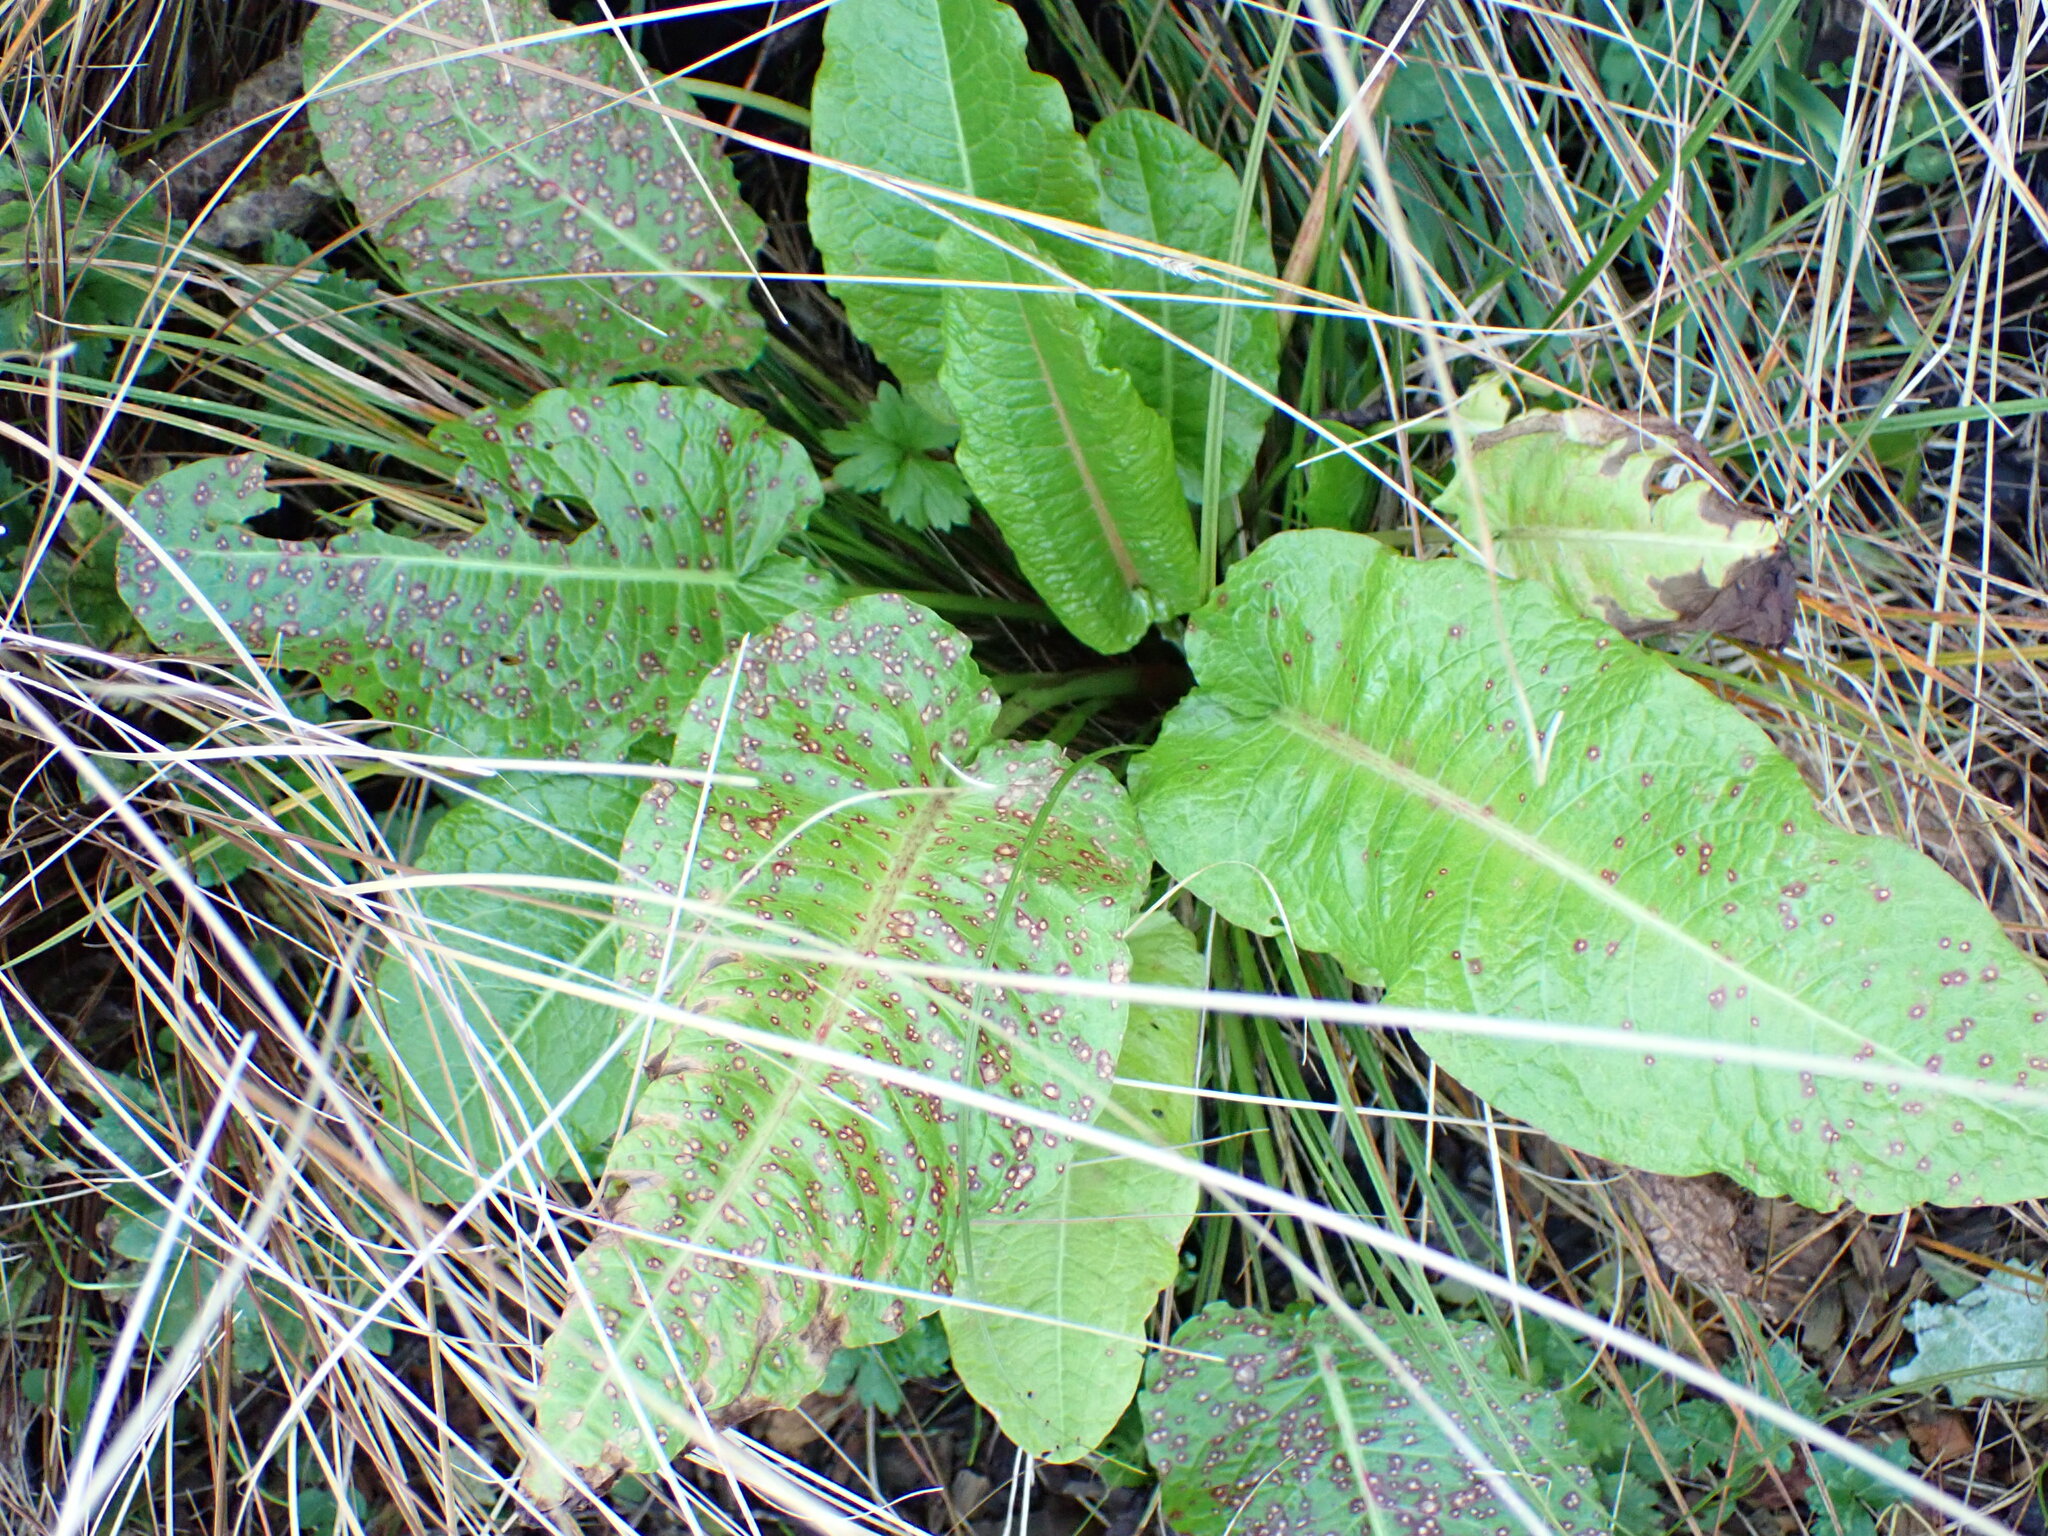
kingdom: Plantae
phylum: Tracheophyta
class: Magnoliopsida
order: Caryophyllales
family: Polygonaceae
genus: Rumex
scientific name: Rumex obtusifolius
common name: Bitter dock
